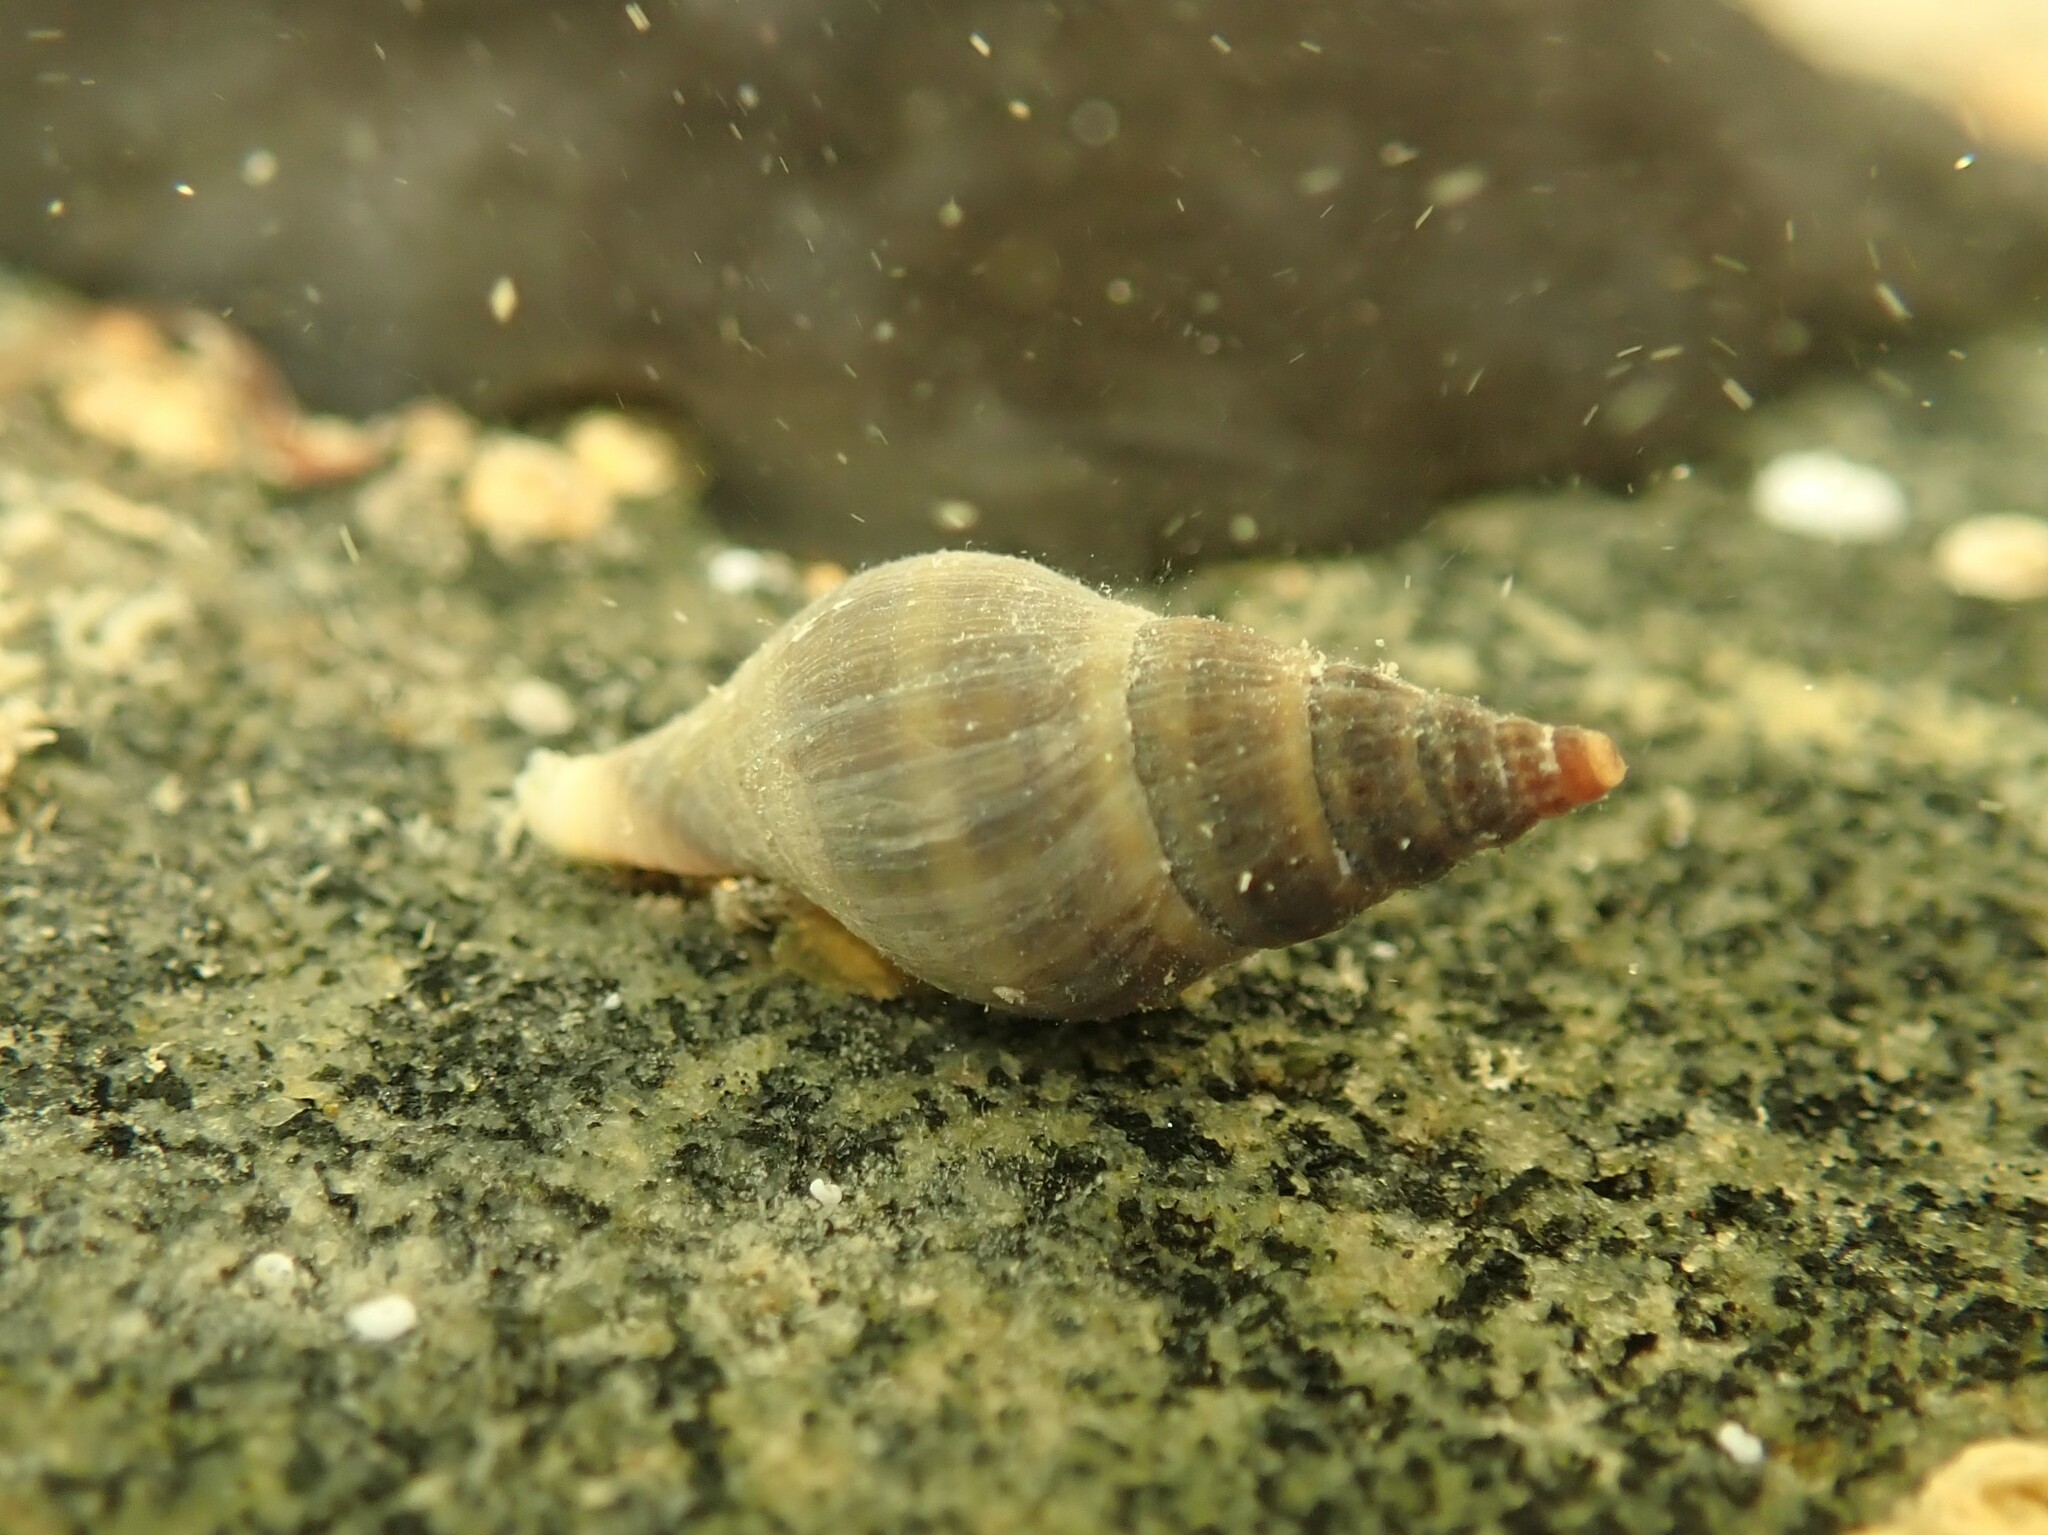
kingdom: Animalia
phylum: Mollusca
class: Gastropoda
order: Neogastropoda
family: Tudiclidae
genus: Buccinulum
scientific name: Buccinulum littorinoides
